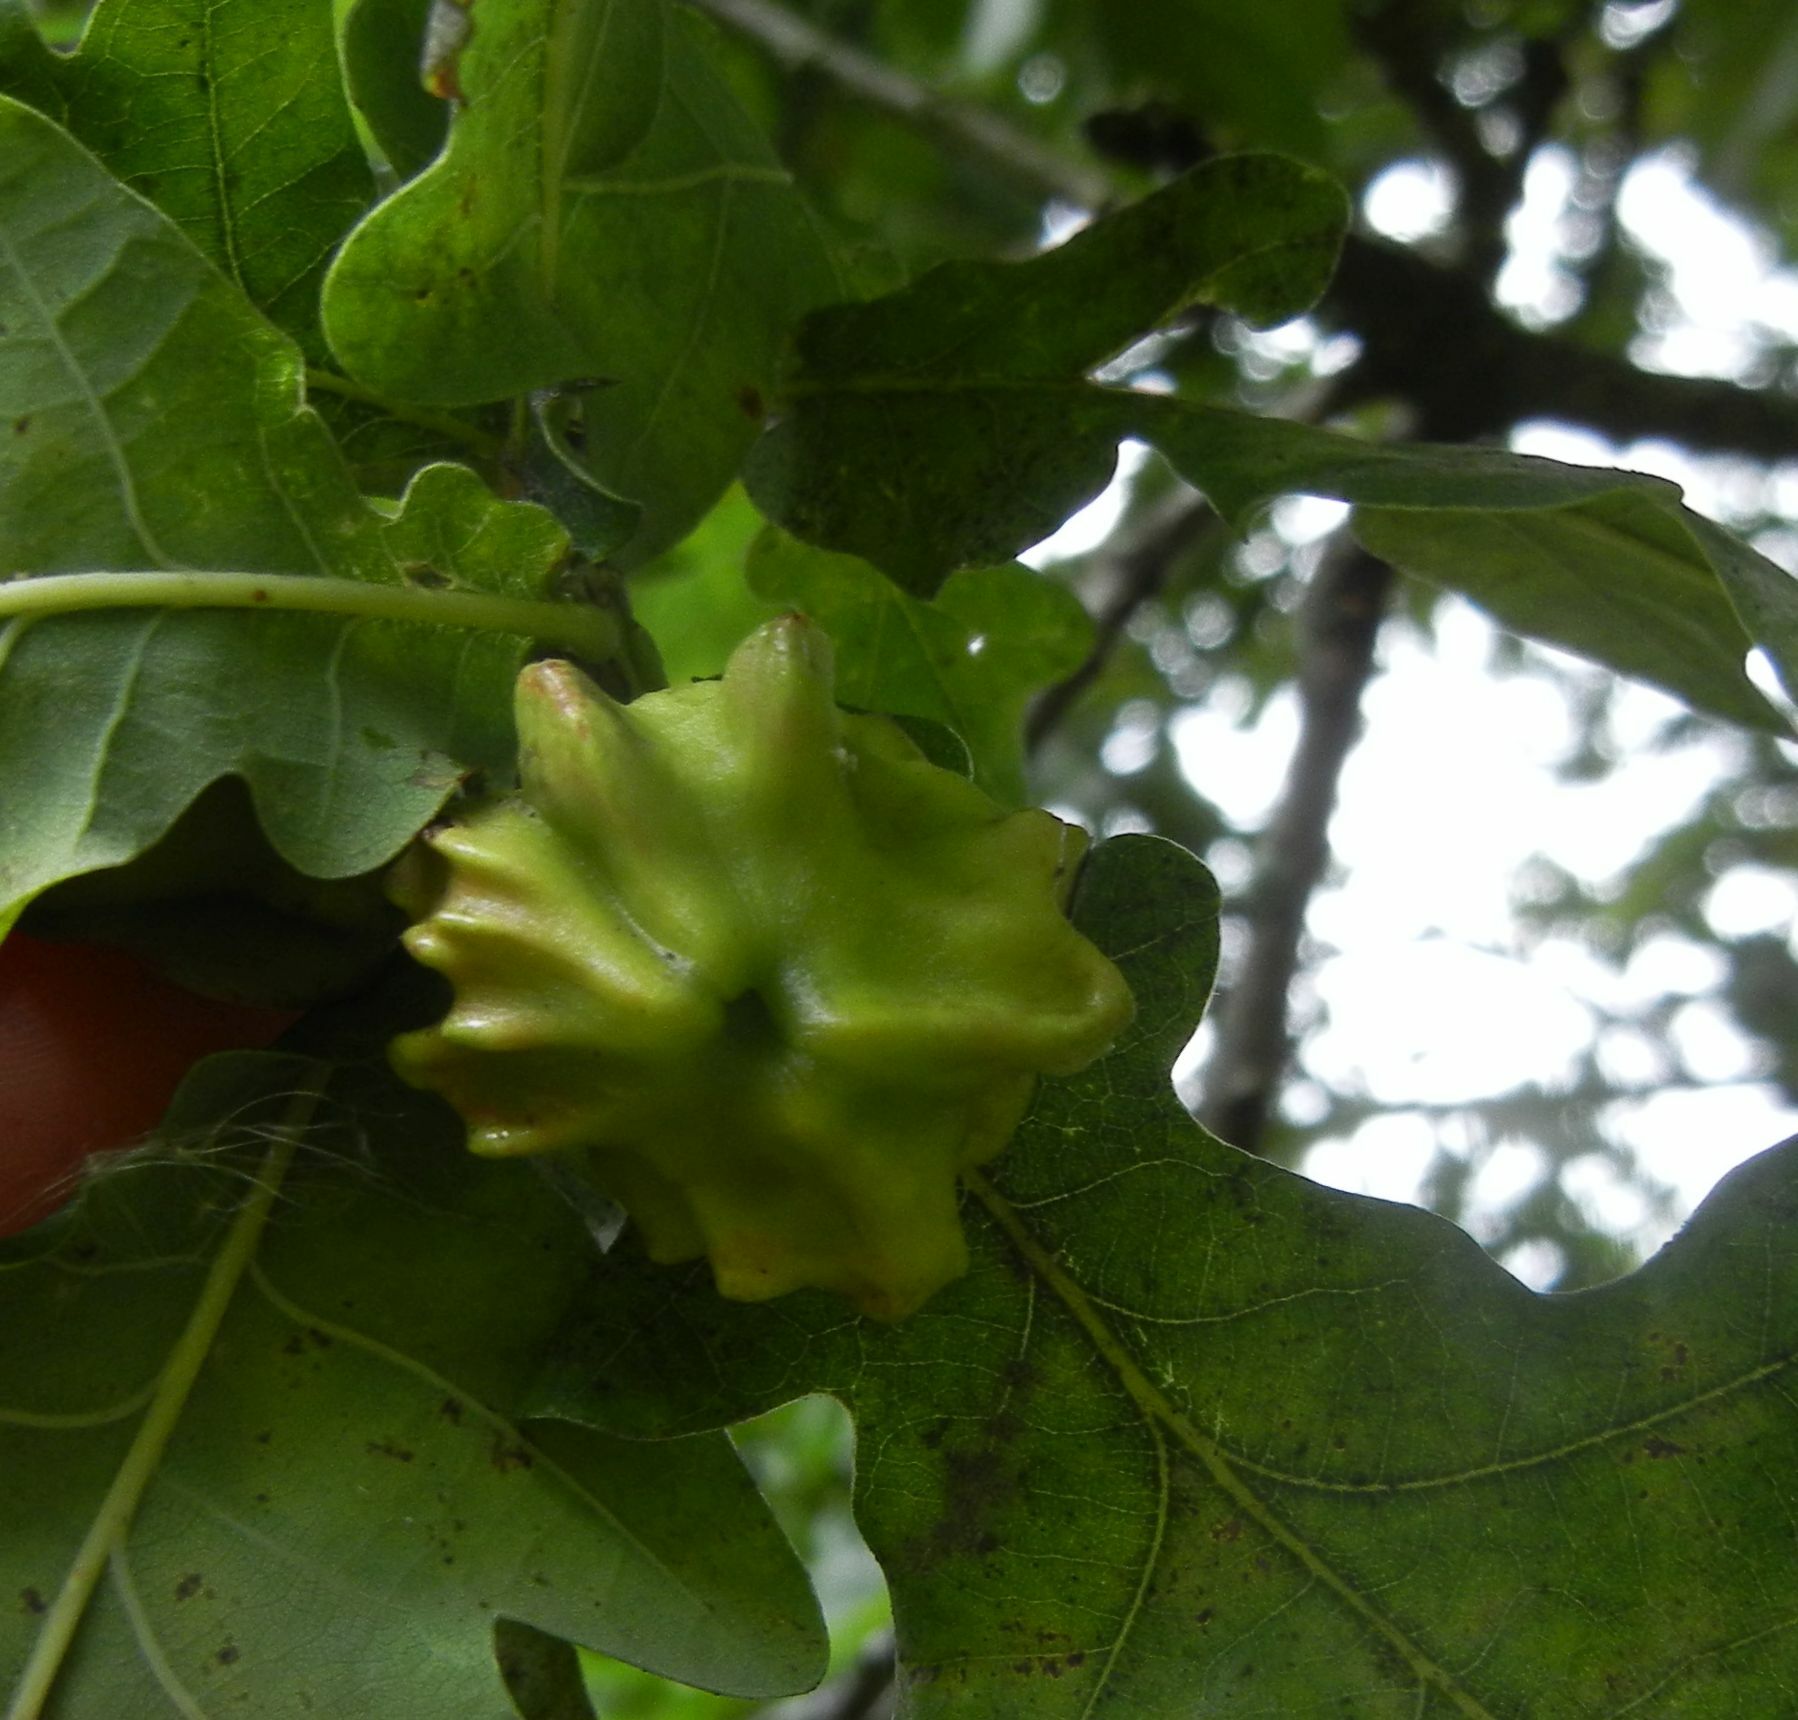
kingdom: Animalia
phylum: Arthropoda
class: Insecta
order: Hymenoptera
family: Cynipidae
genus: Andricus
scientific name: Andricus quercuscalicis
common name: Knopper gall
